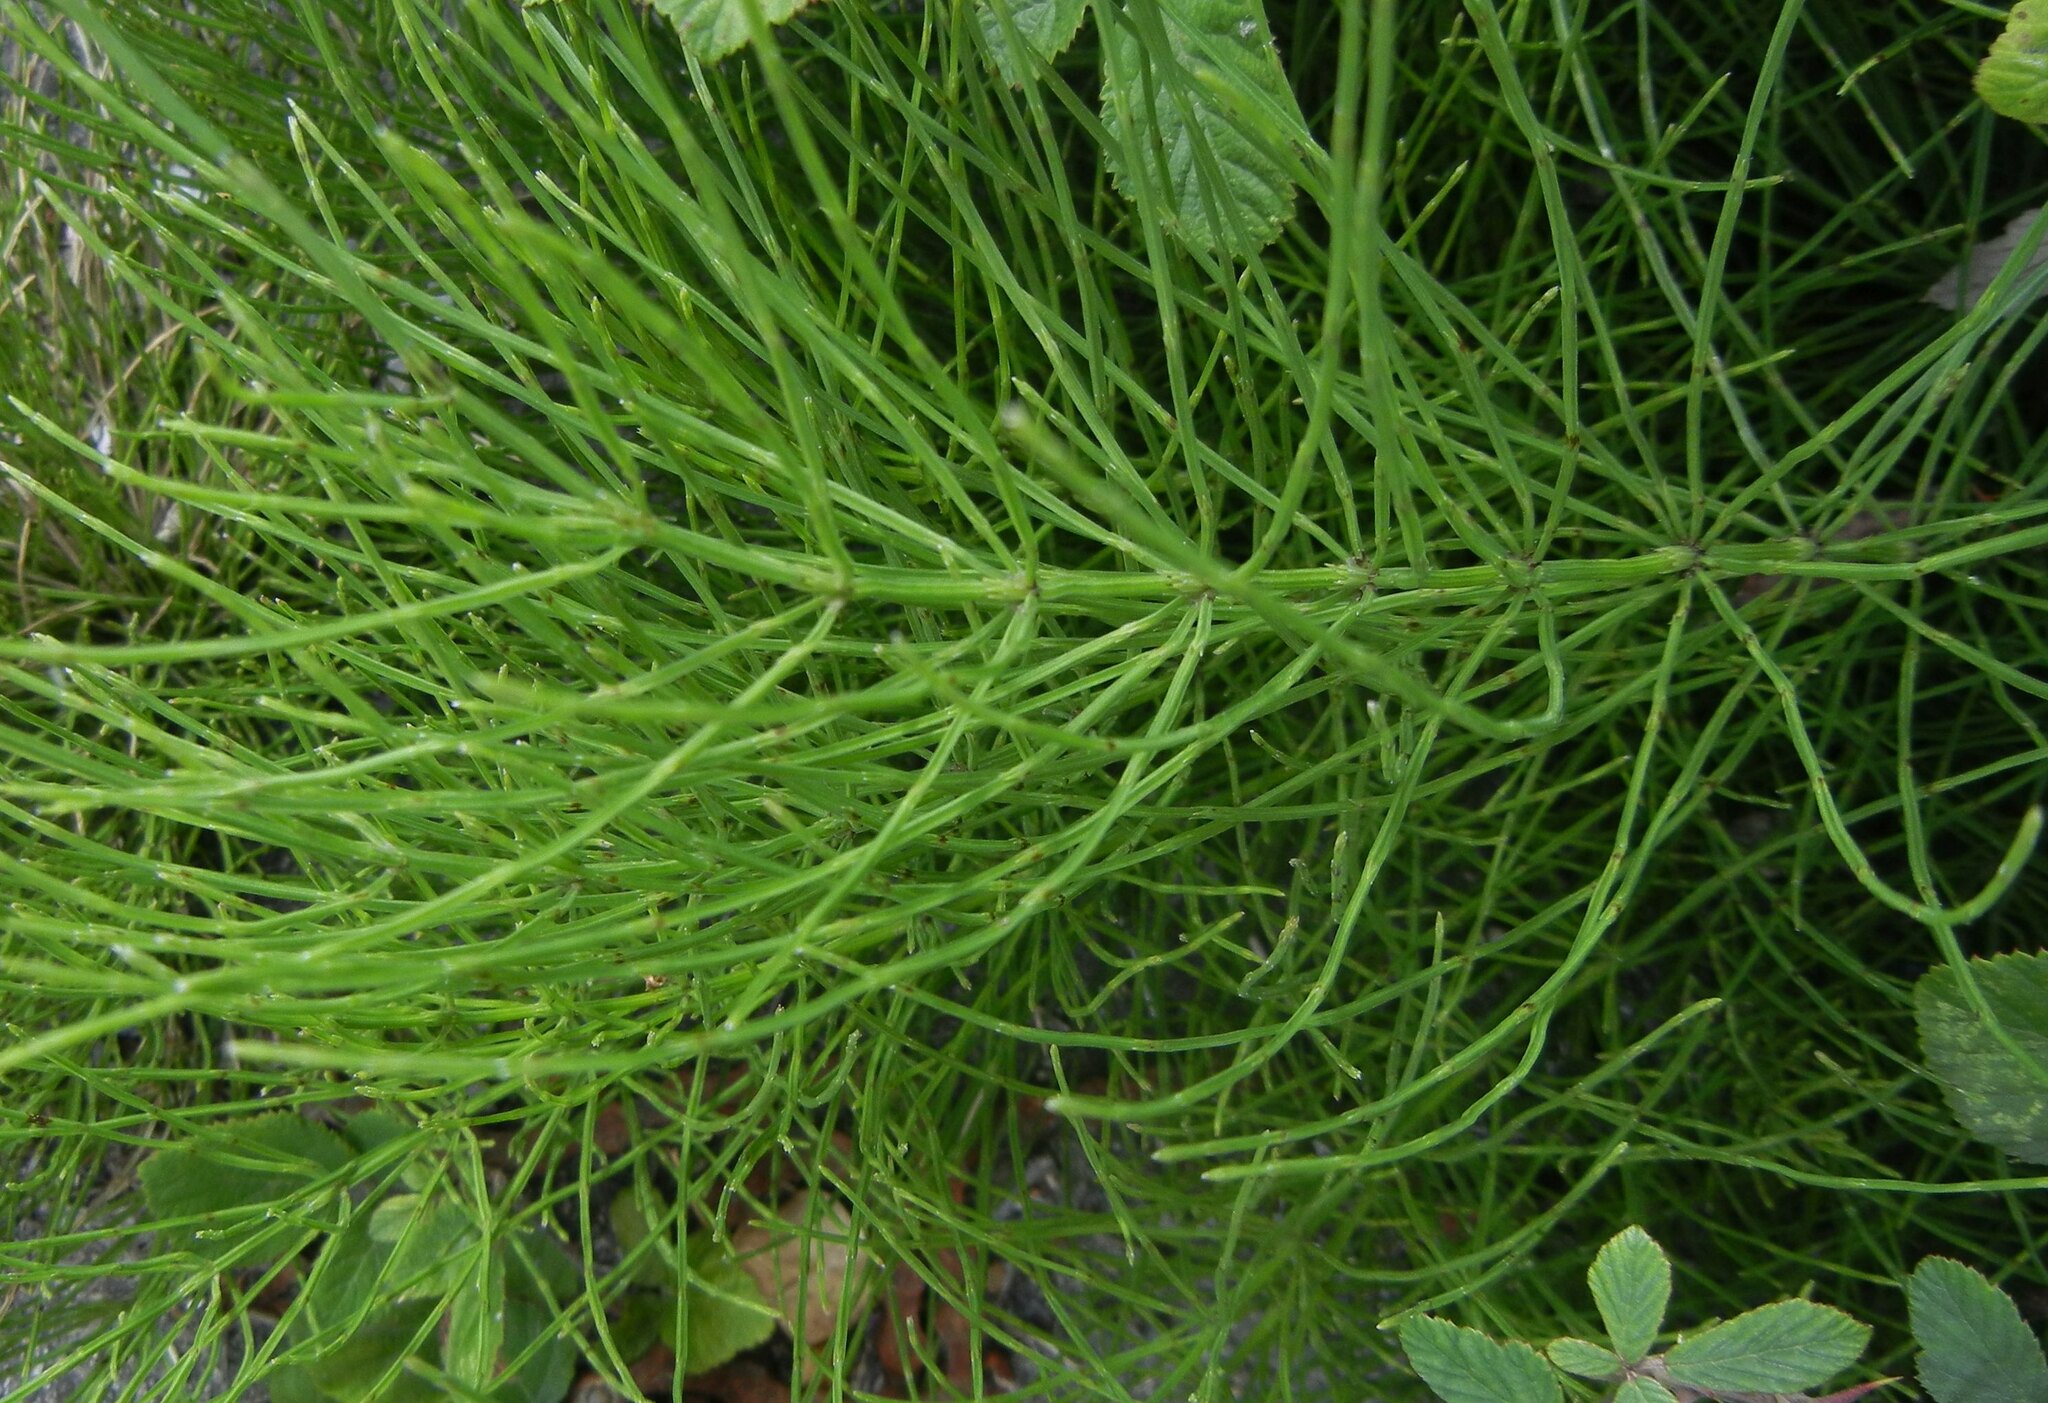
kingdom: Plantae
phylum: Tracheophyta
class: Polypodiopsida
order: Equisetales
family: Equisetaceae
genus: Equisetum
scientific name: Equisetum arvense
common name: Field horsetail
